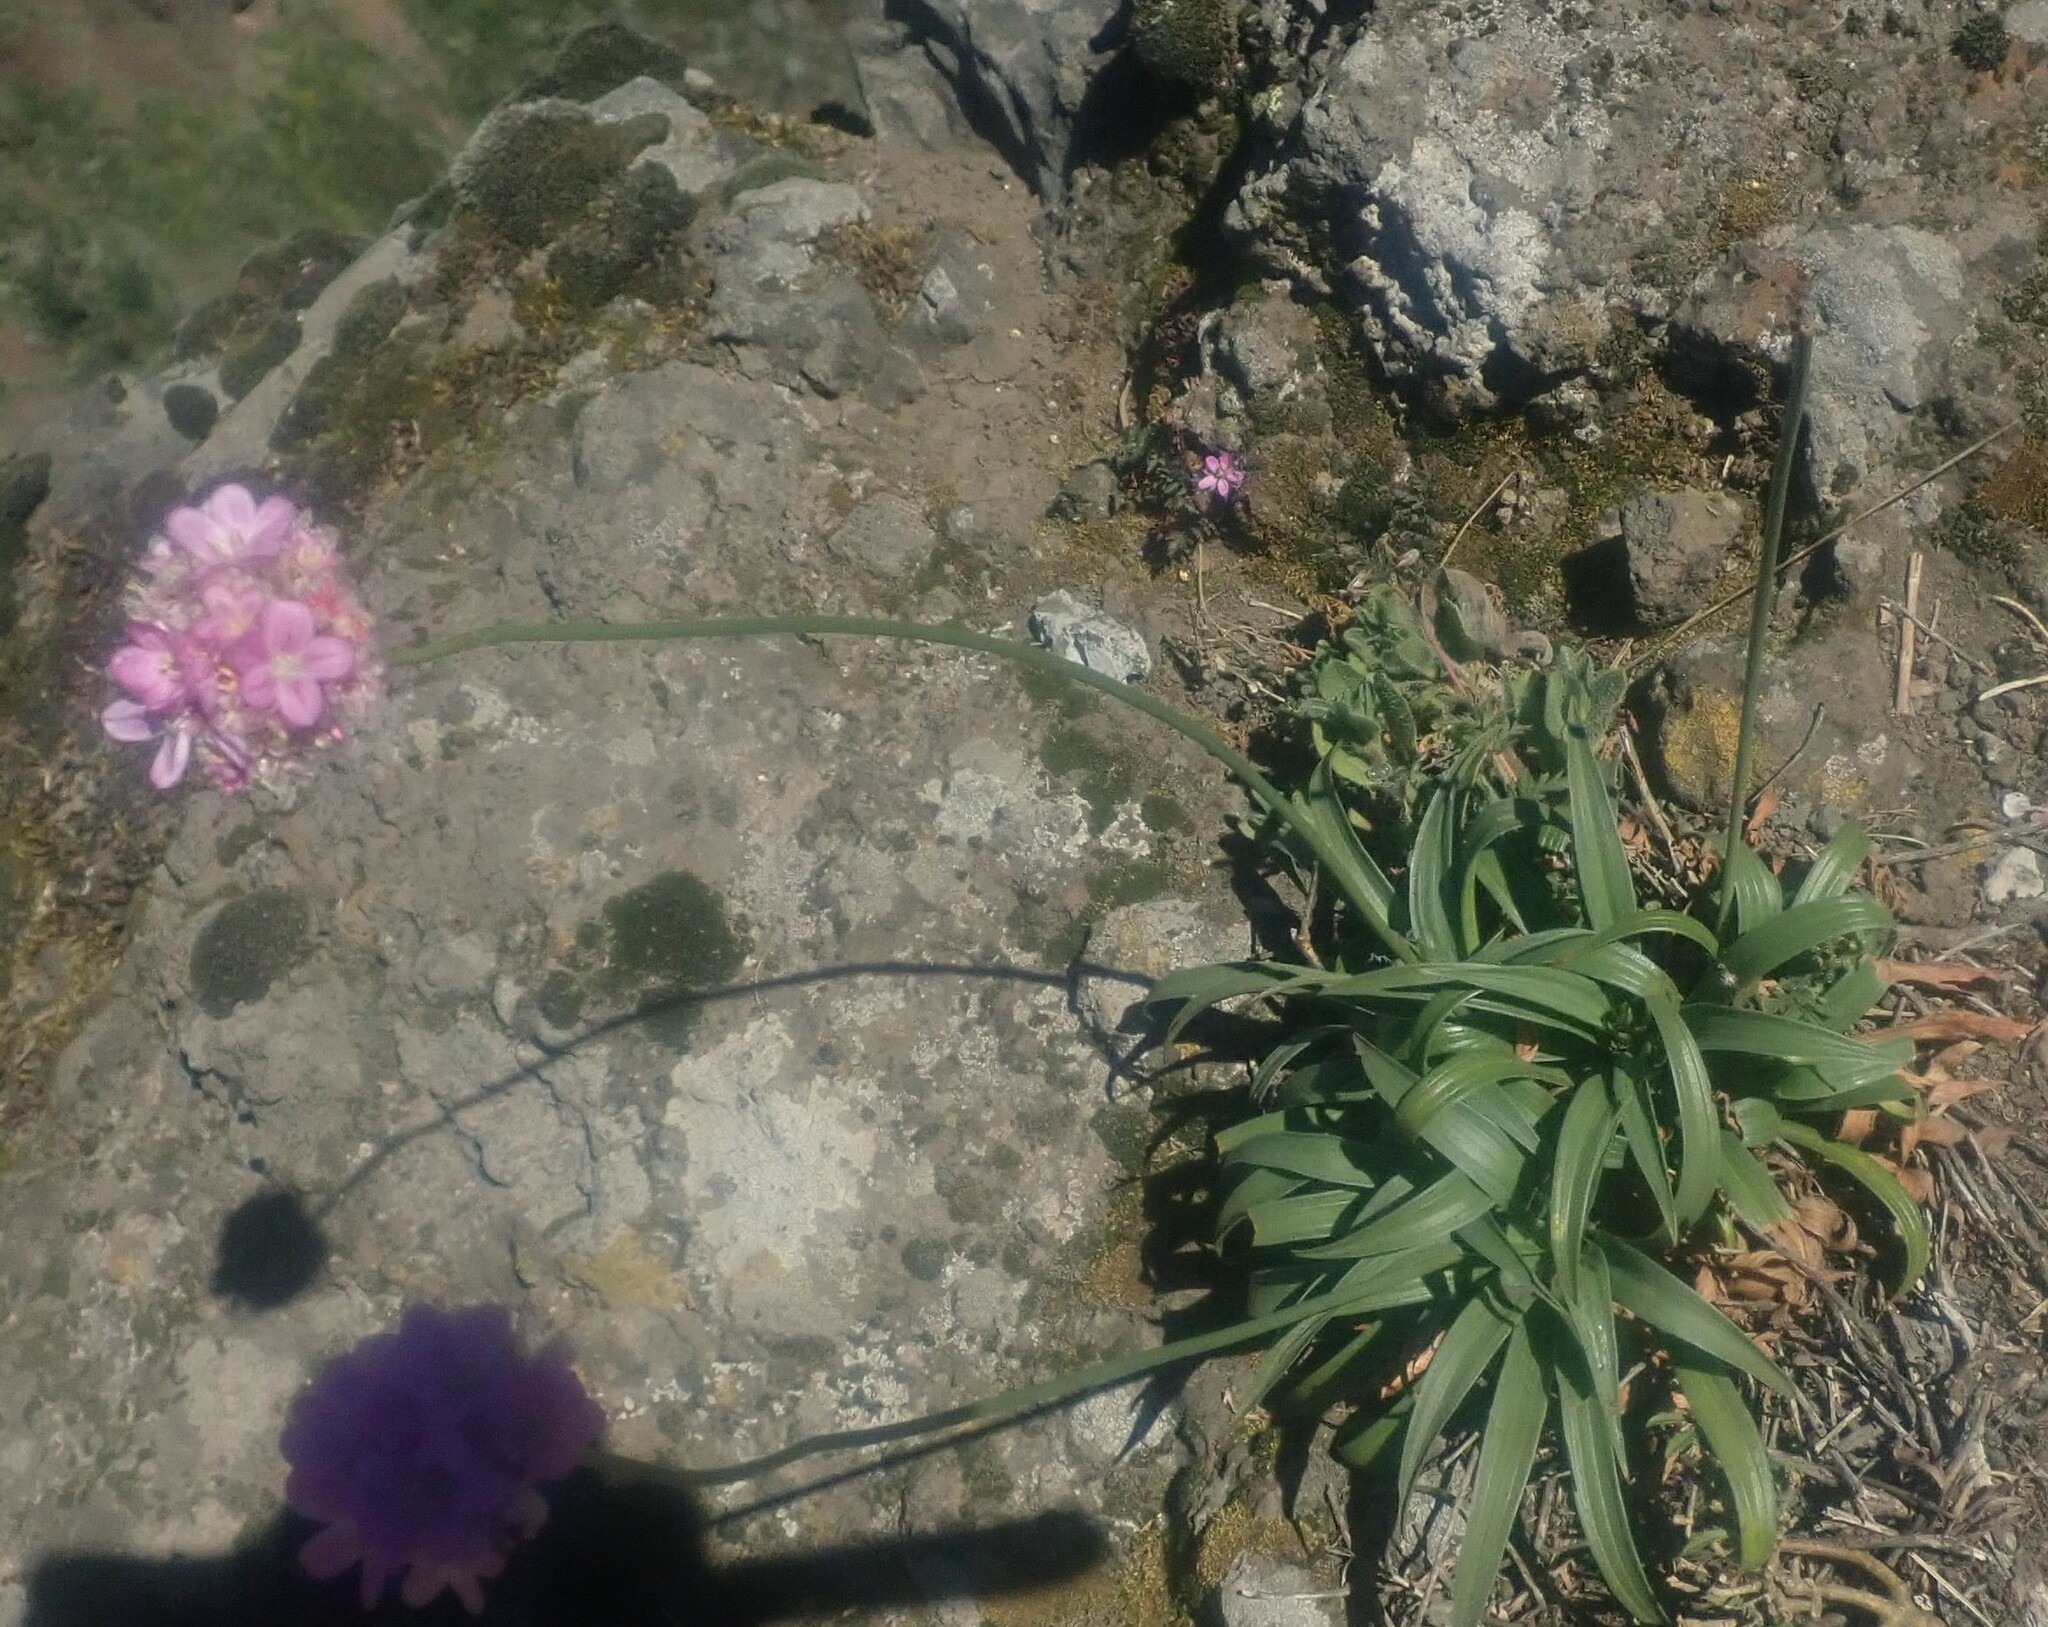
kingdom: Plantae
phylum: Tracheophyta
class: Magnoliopsida
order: Caryophyllales
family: Plumbaginaceae
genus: Armeria
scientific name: Armeria maderensis
